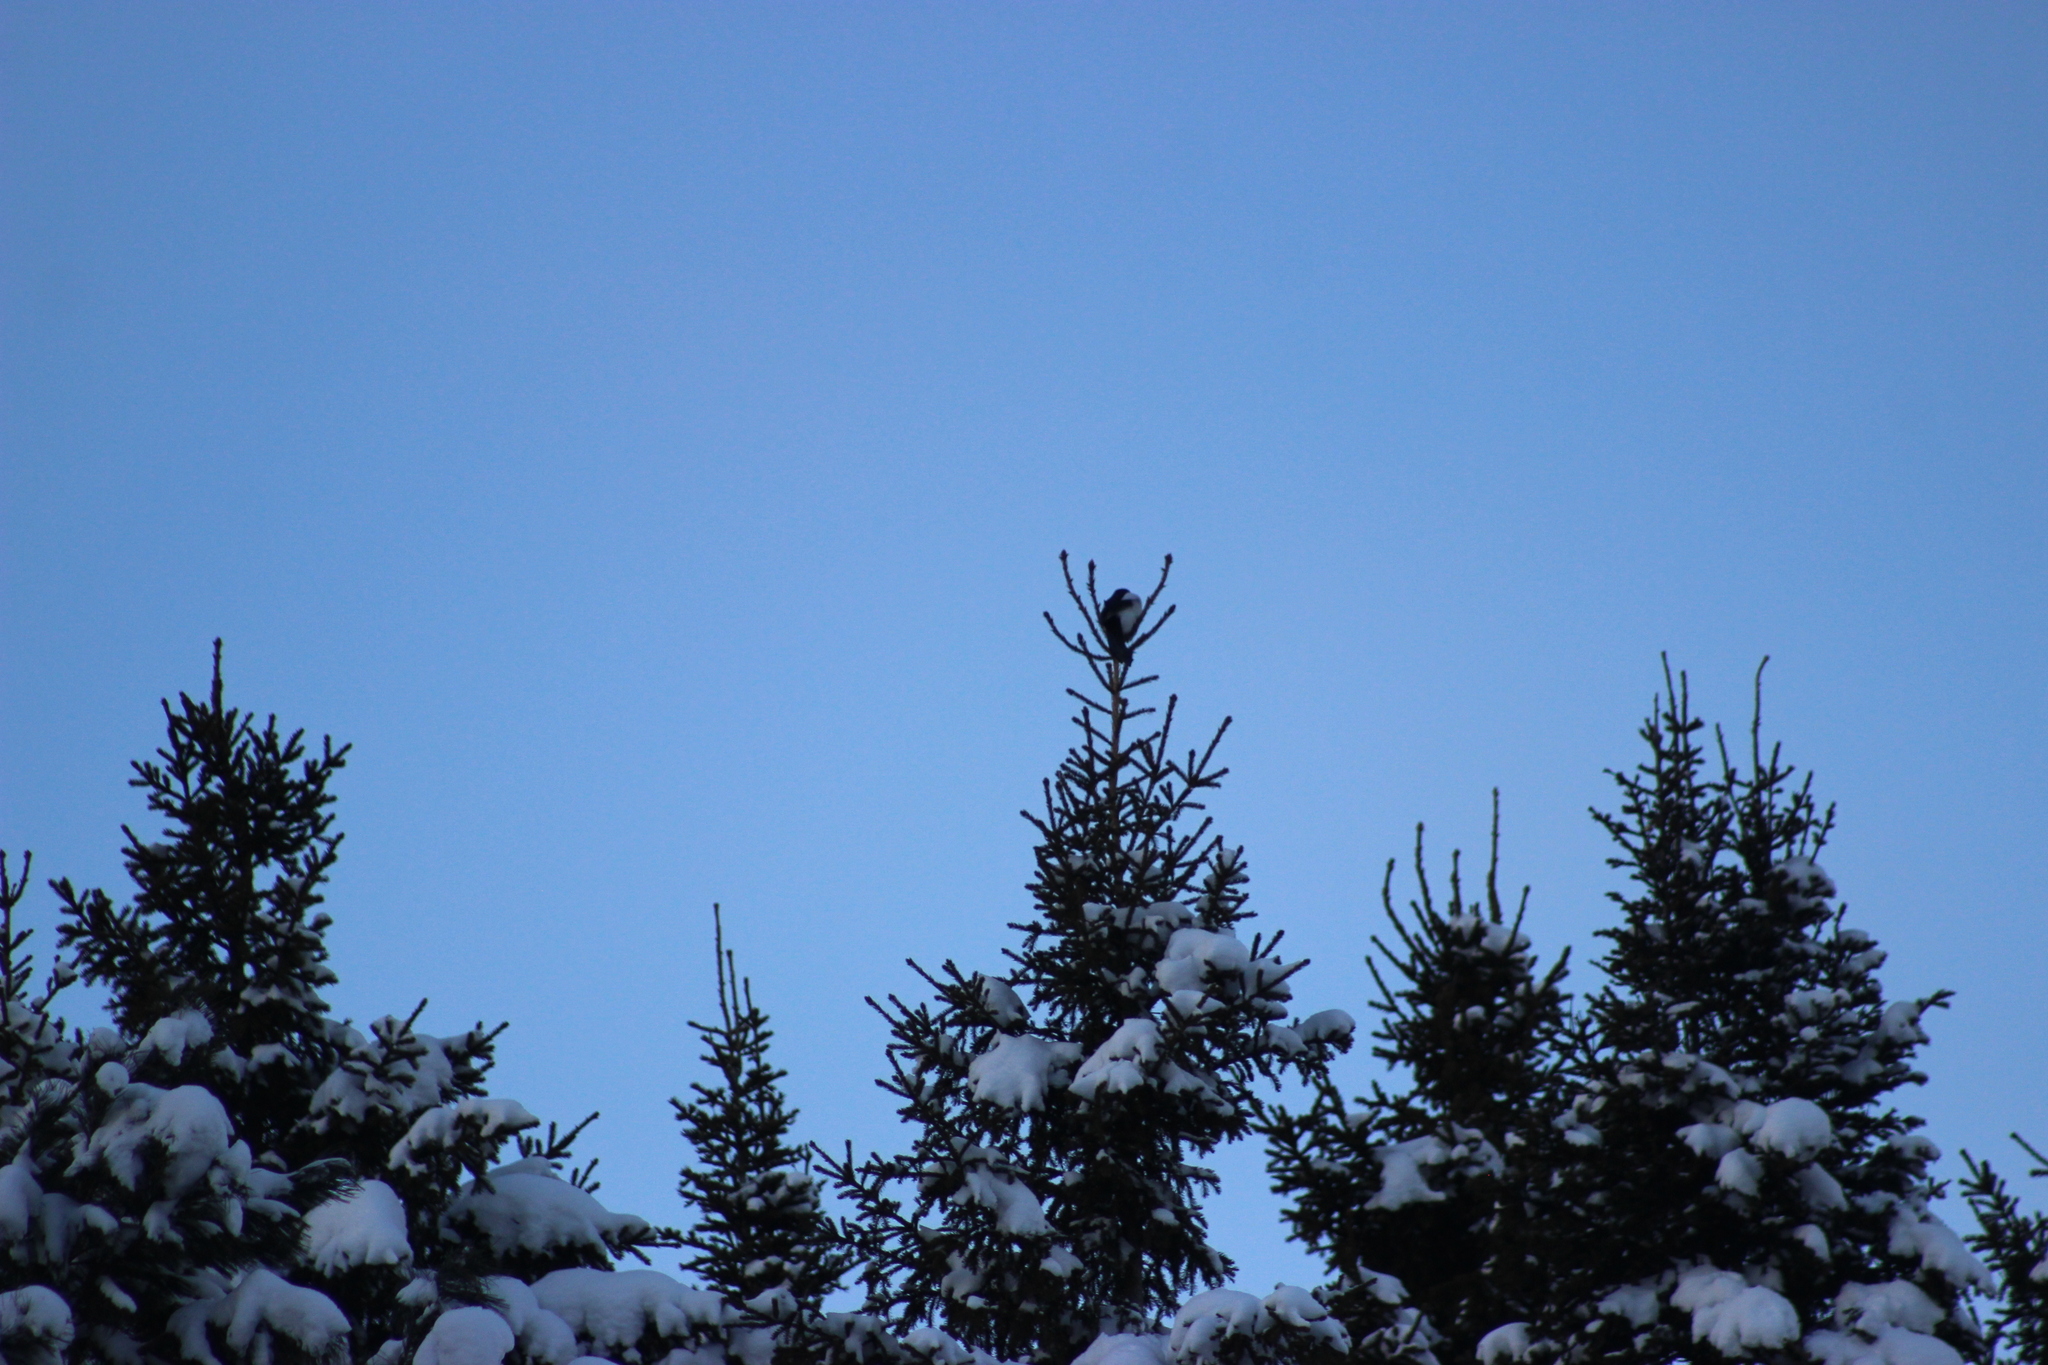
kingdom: Animalia
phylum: Chordata
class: Aves
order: Passeriformes
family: Corvidae
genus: Pica
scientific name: Pica pica
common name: Eurasian magpie
